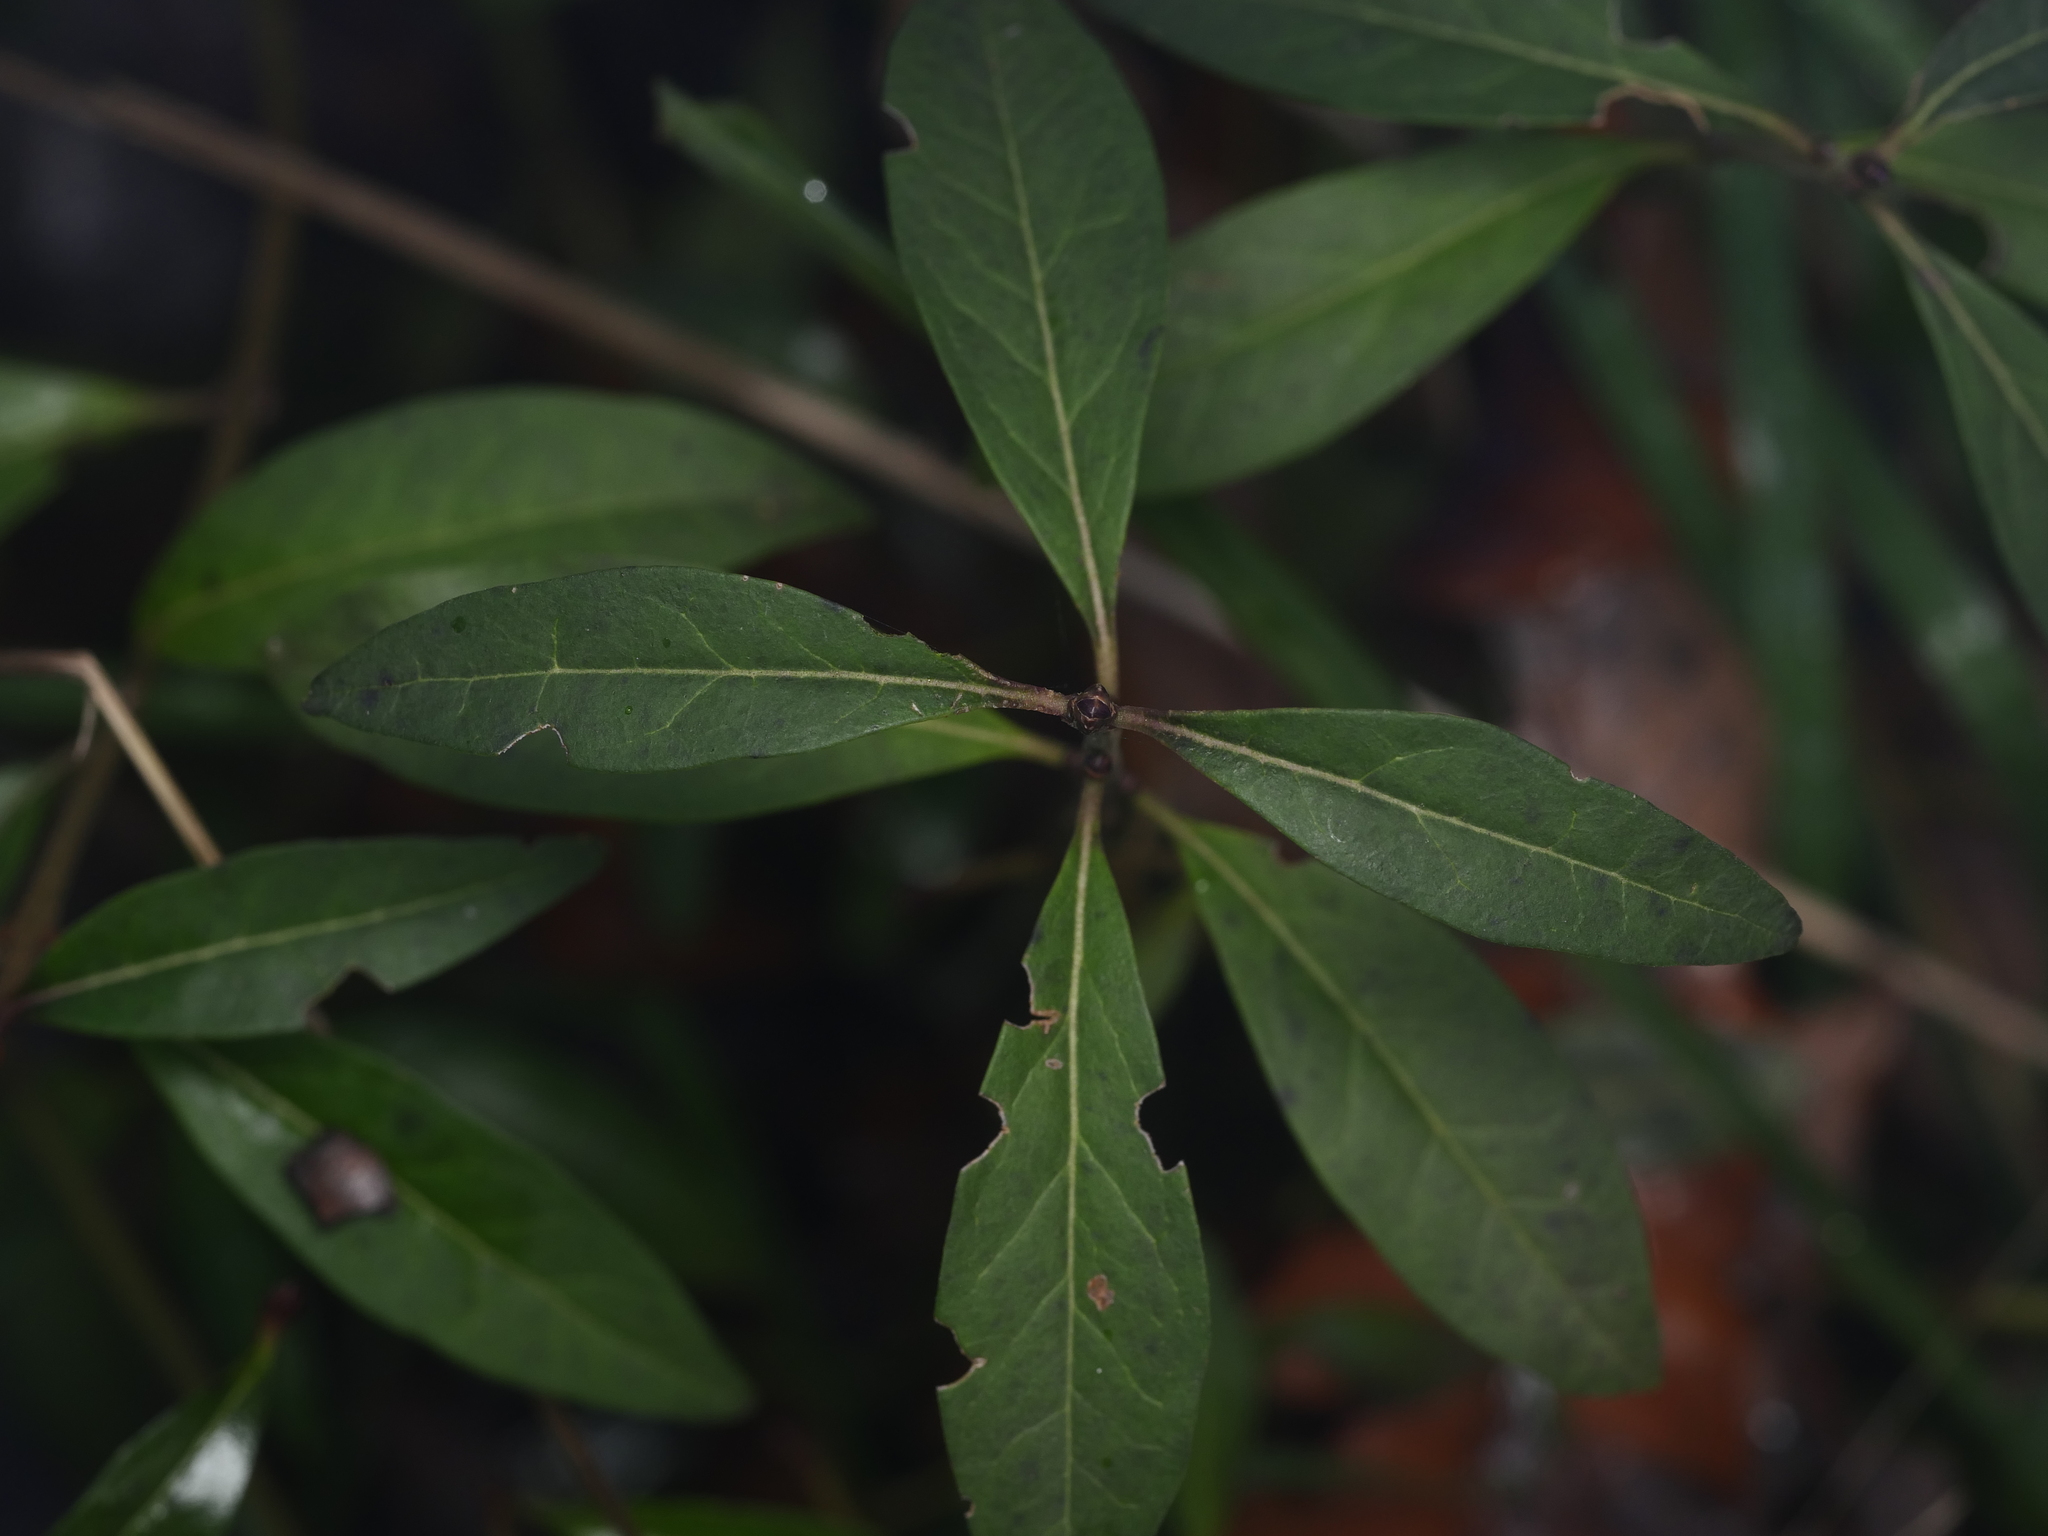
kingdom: Plantae
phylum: Tracheophyta
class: Magnoliopsida
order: Lamiales
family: Oleaceae
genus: Ligustrum
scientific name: Ligustrum vulgare
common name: Wild privet
